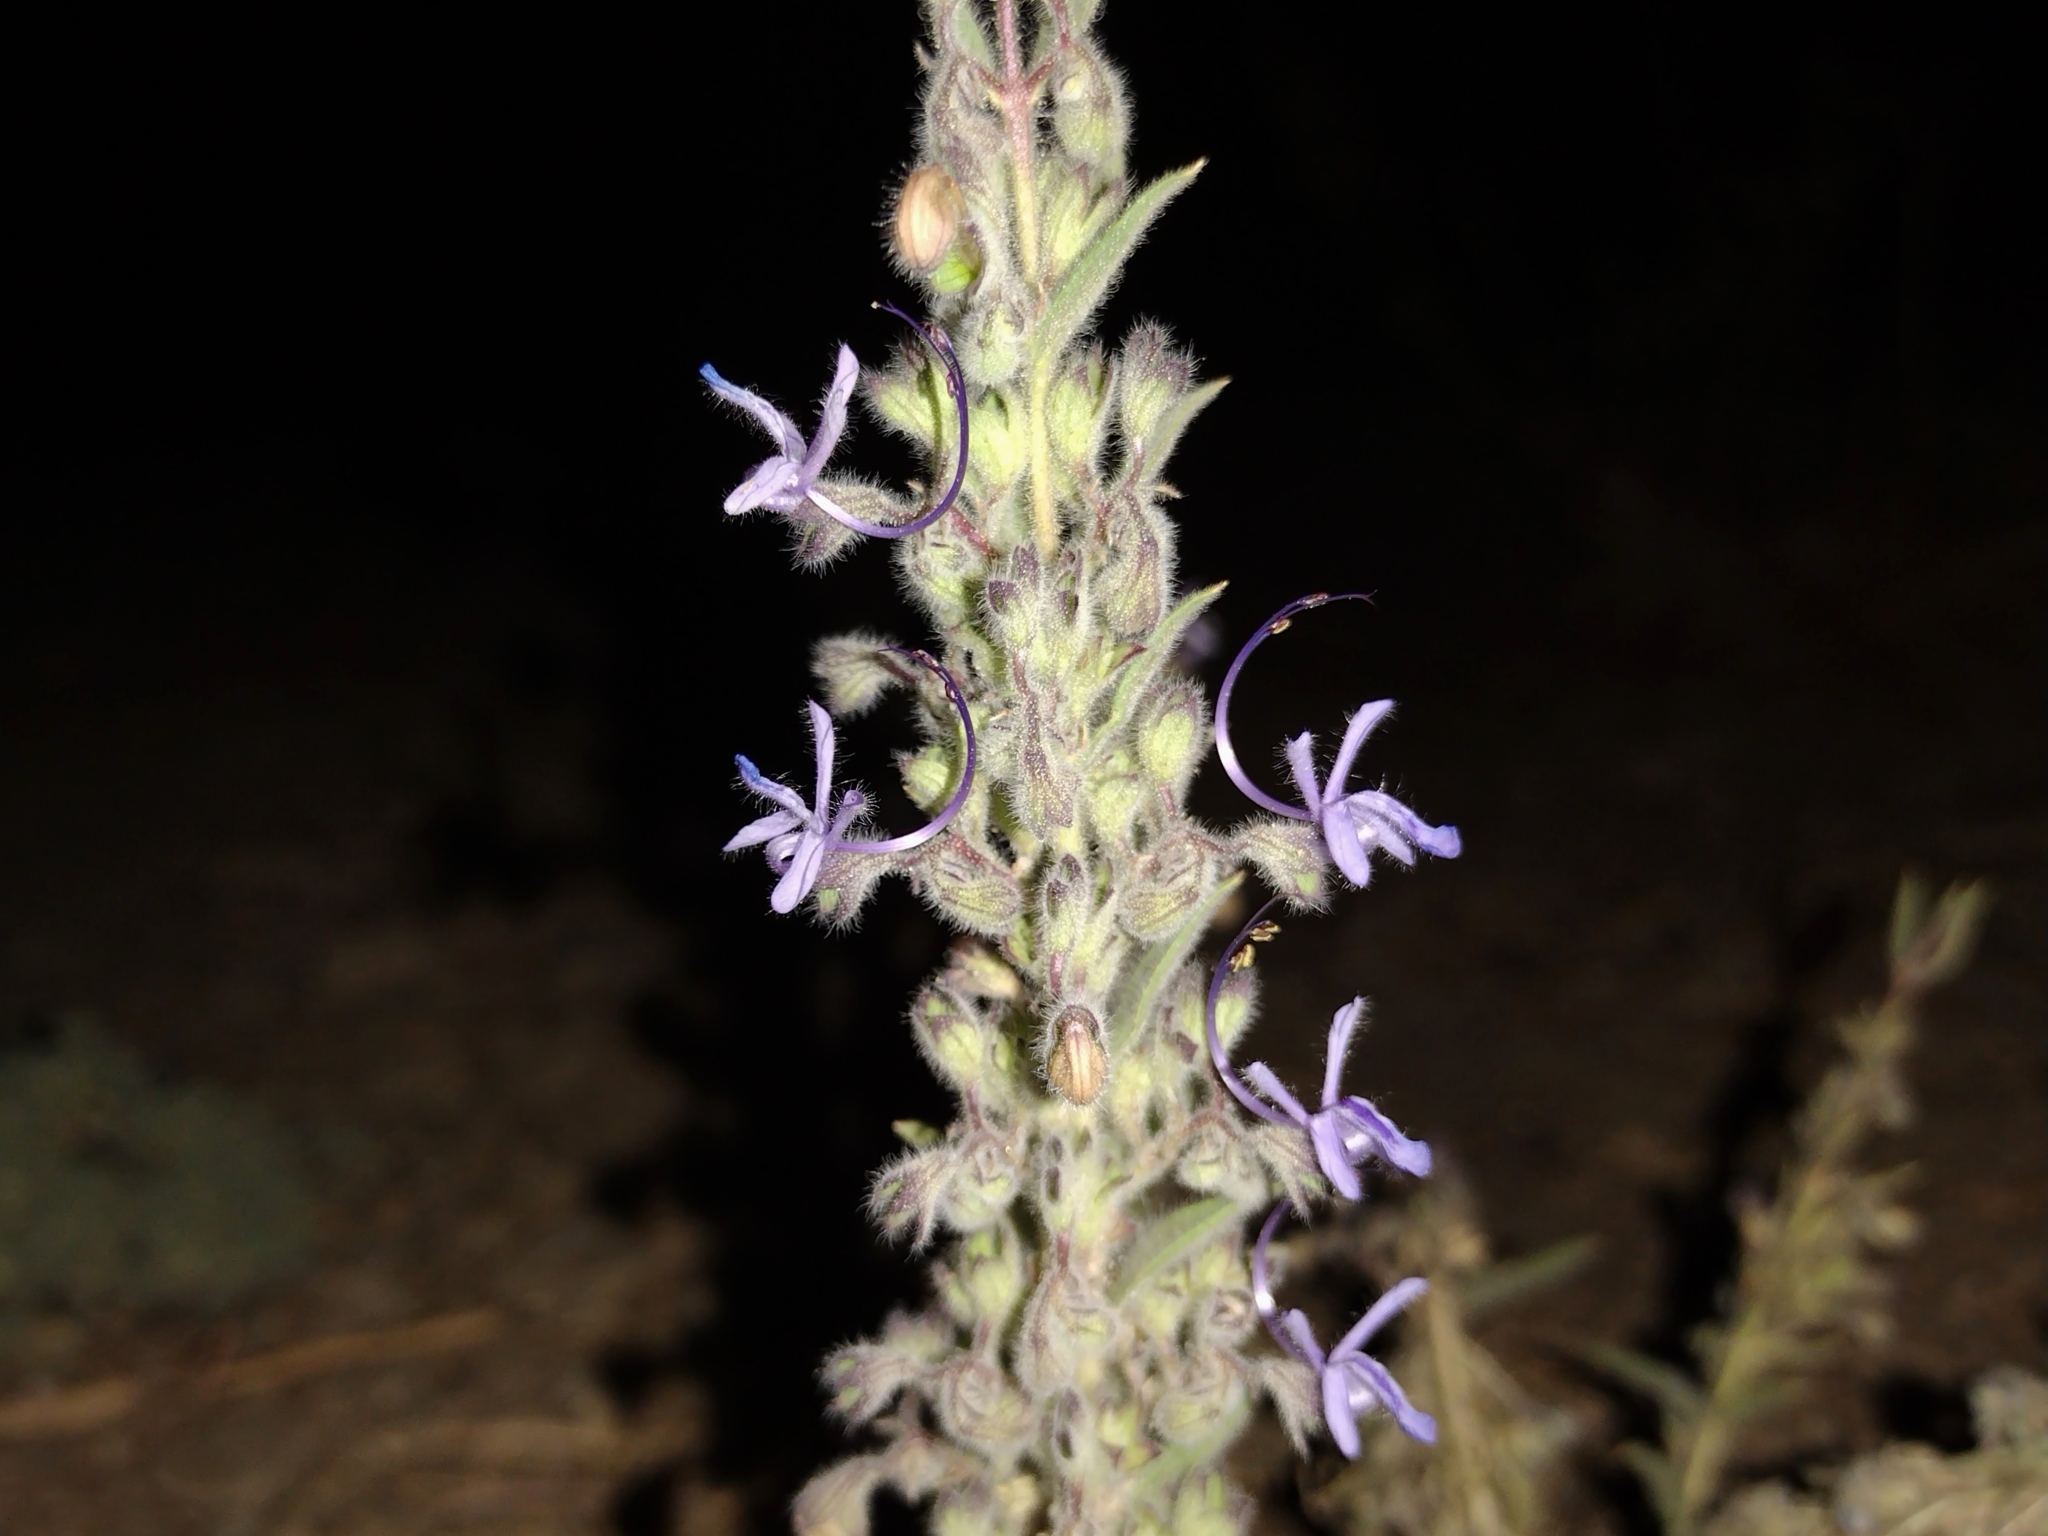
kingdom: Plantae
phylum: Tracheophyta
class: Magnoliopsida
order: Lamiales
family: Lamiaceae
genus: Trichostema
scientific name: Trichostema lanceolatum
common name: Vinegar-weed
